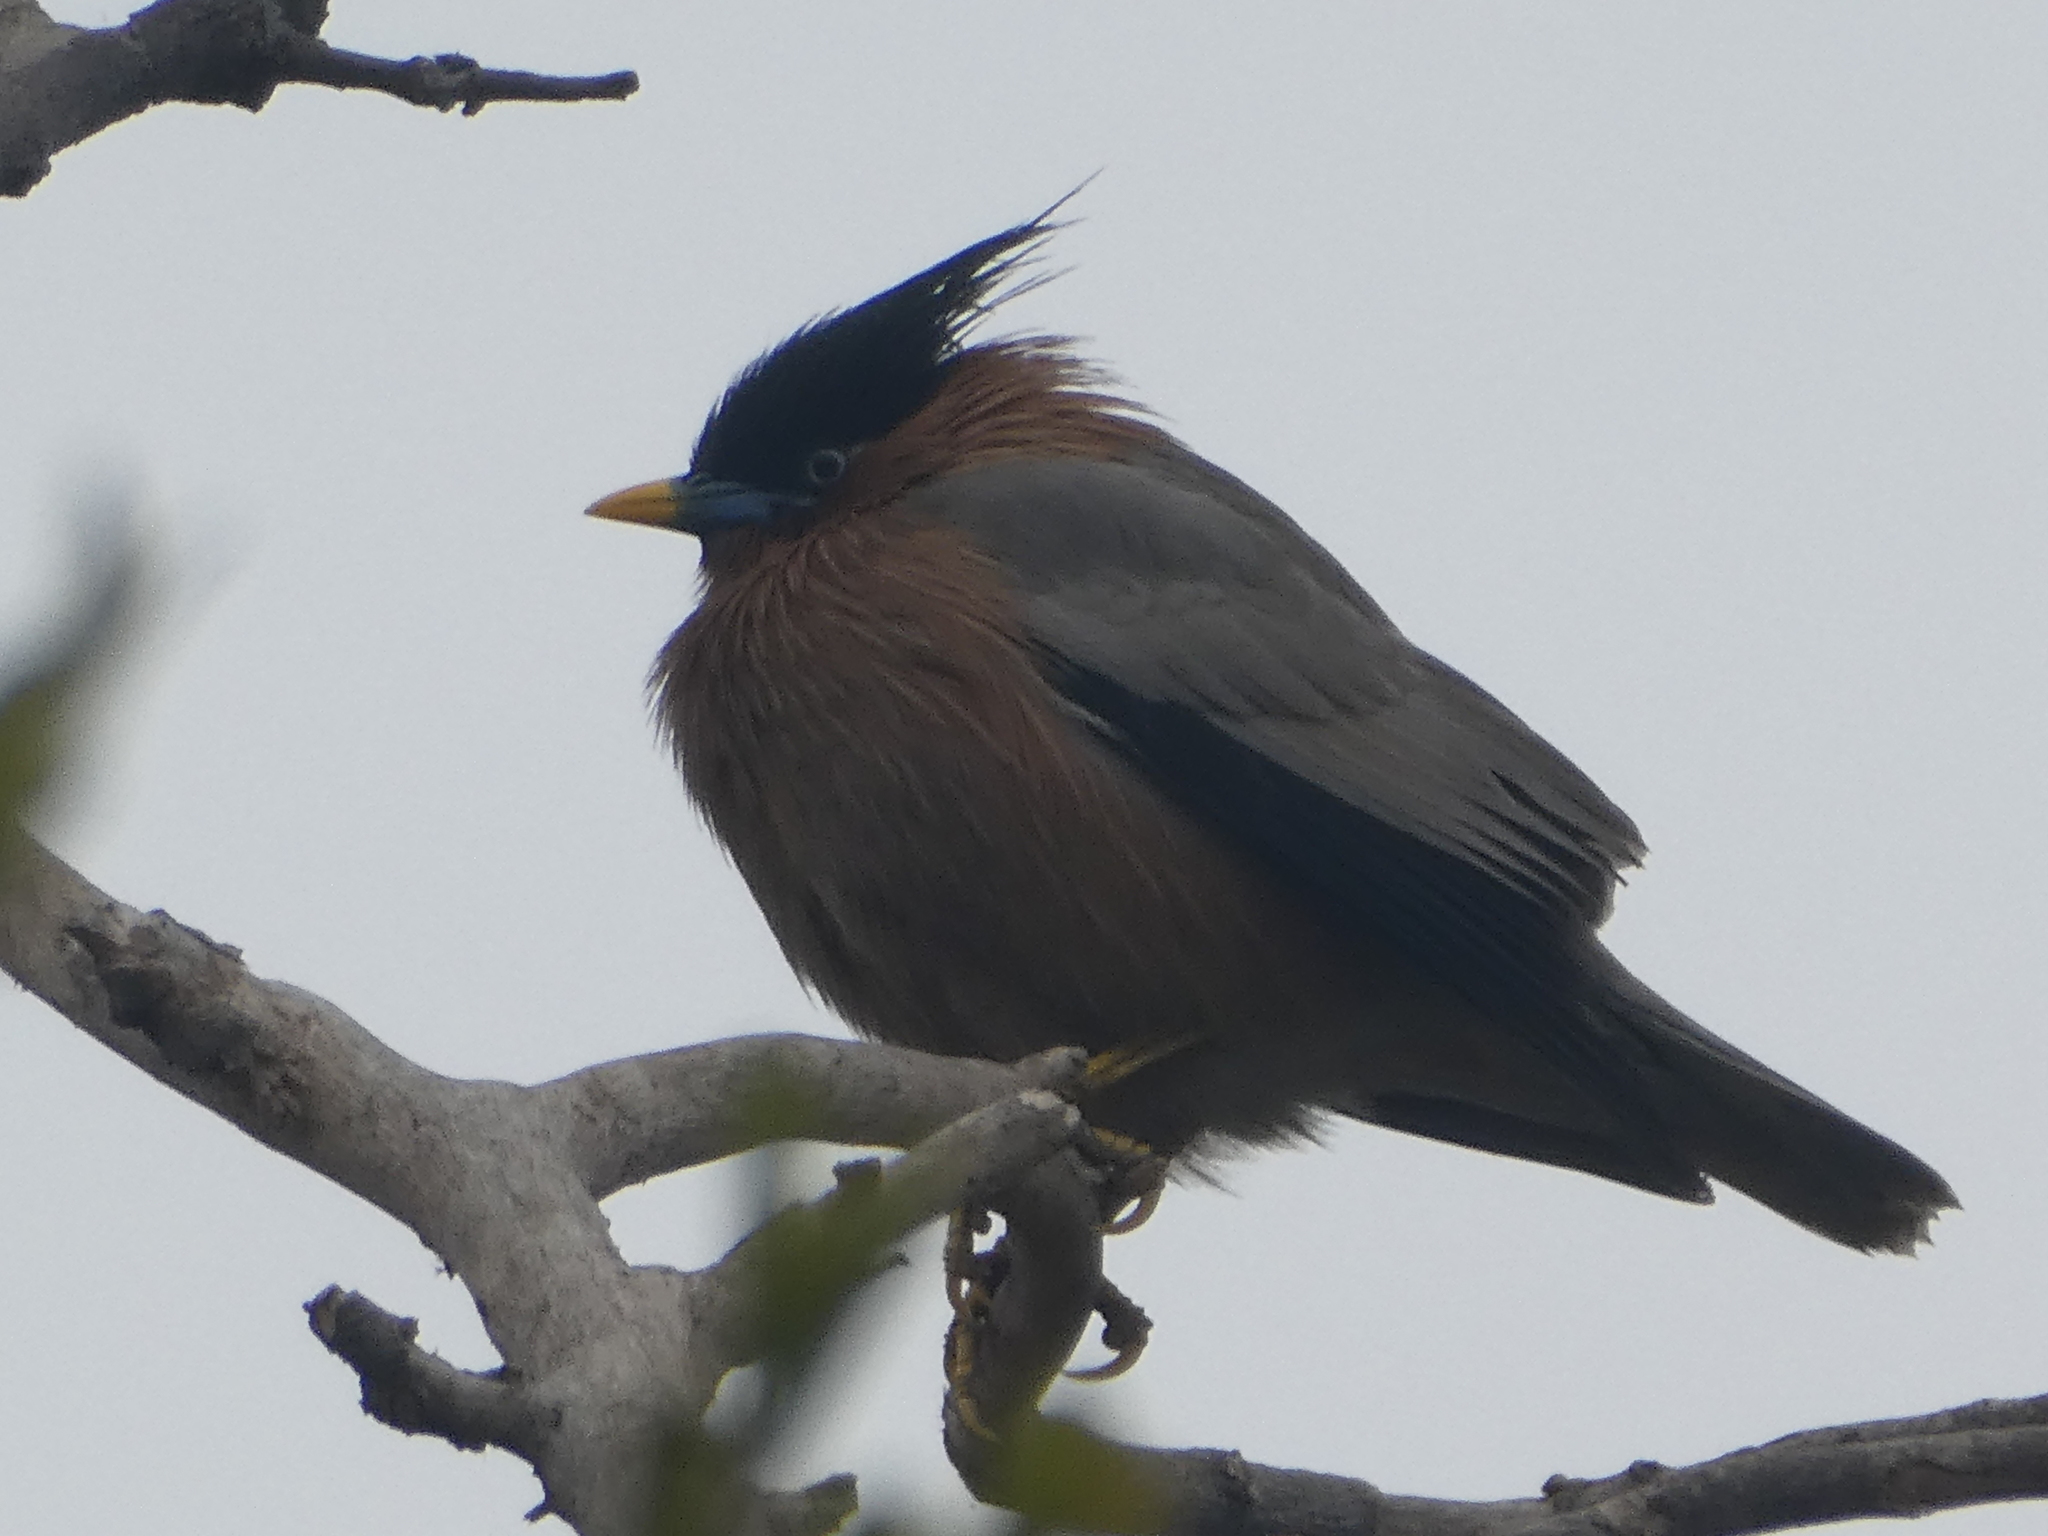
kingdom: Animalia
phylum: Chordata
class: Aves
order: Passeriformes
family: Sturnidae
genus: Sturnia
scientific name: Sturnia pagodarum
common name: Brahminy starling
